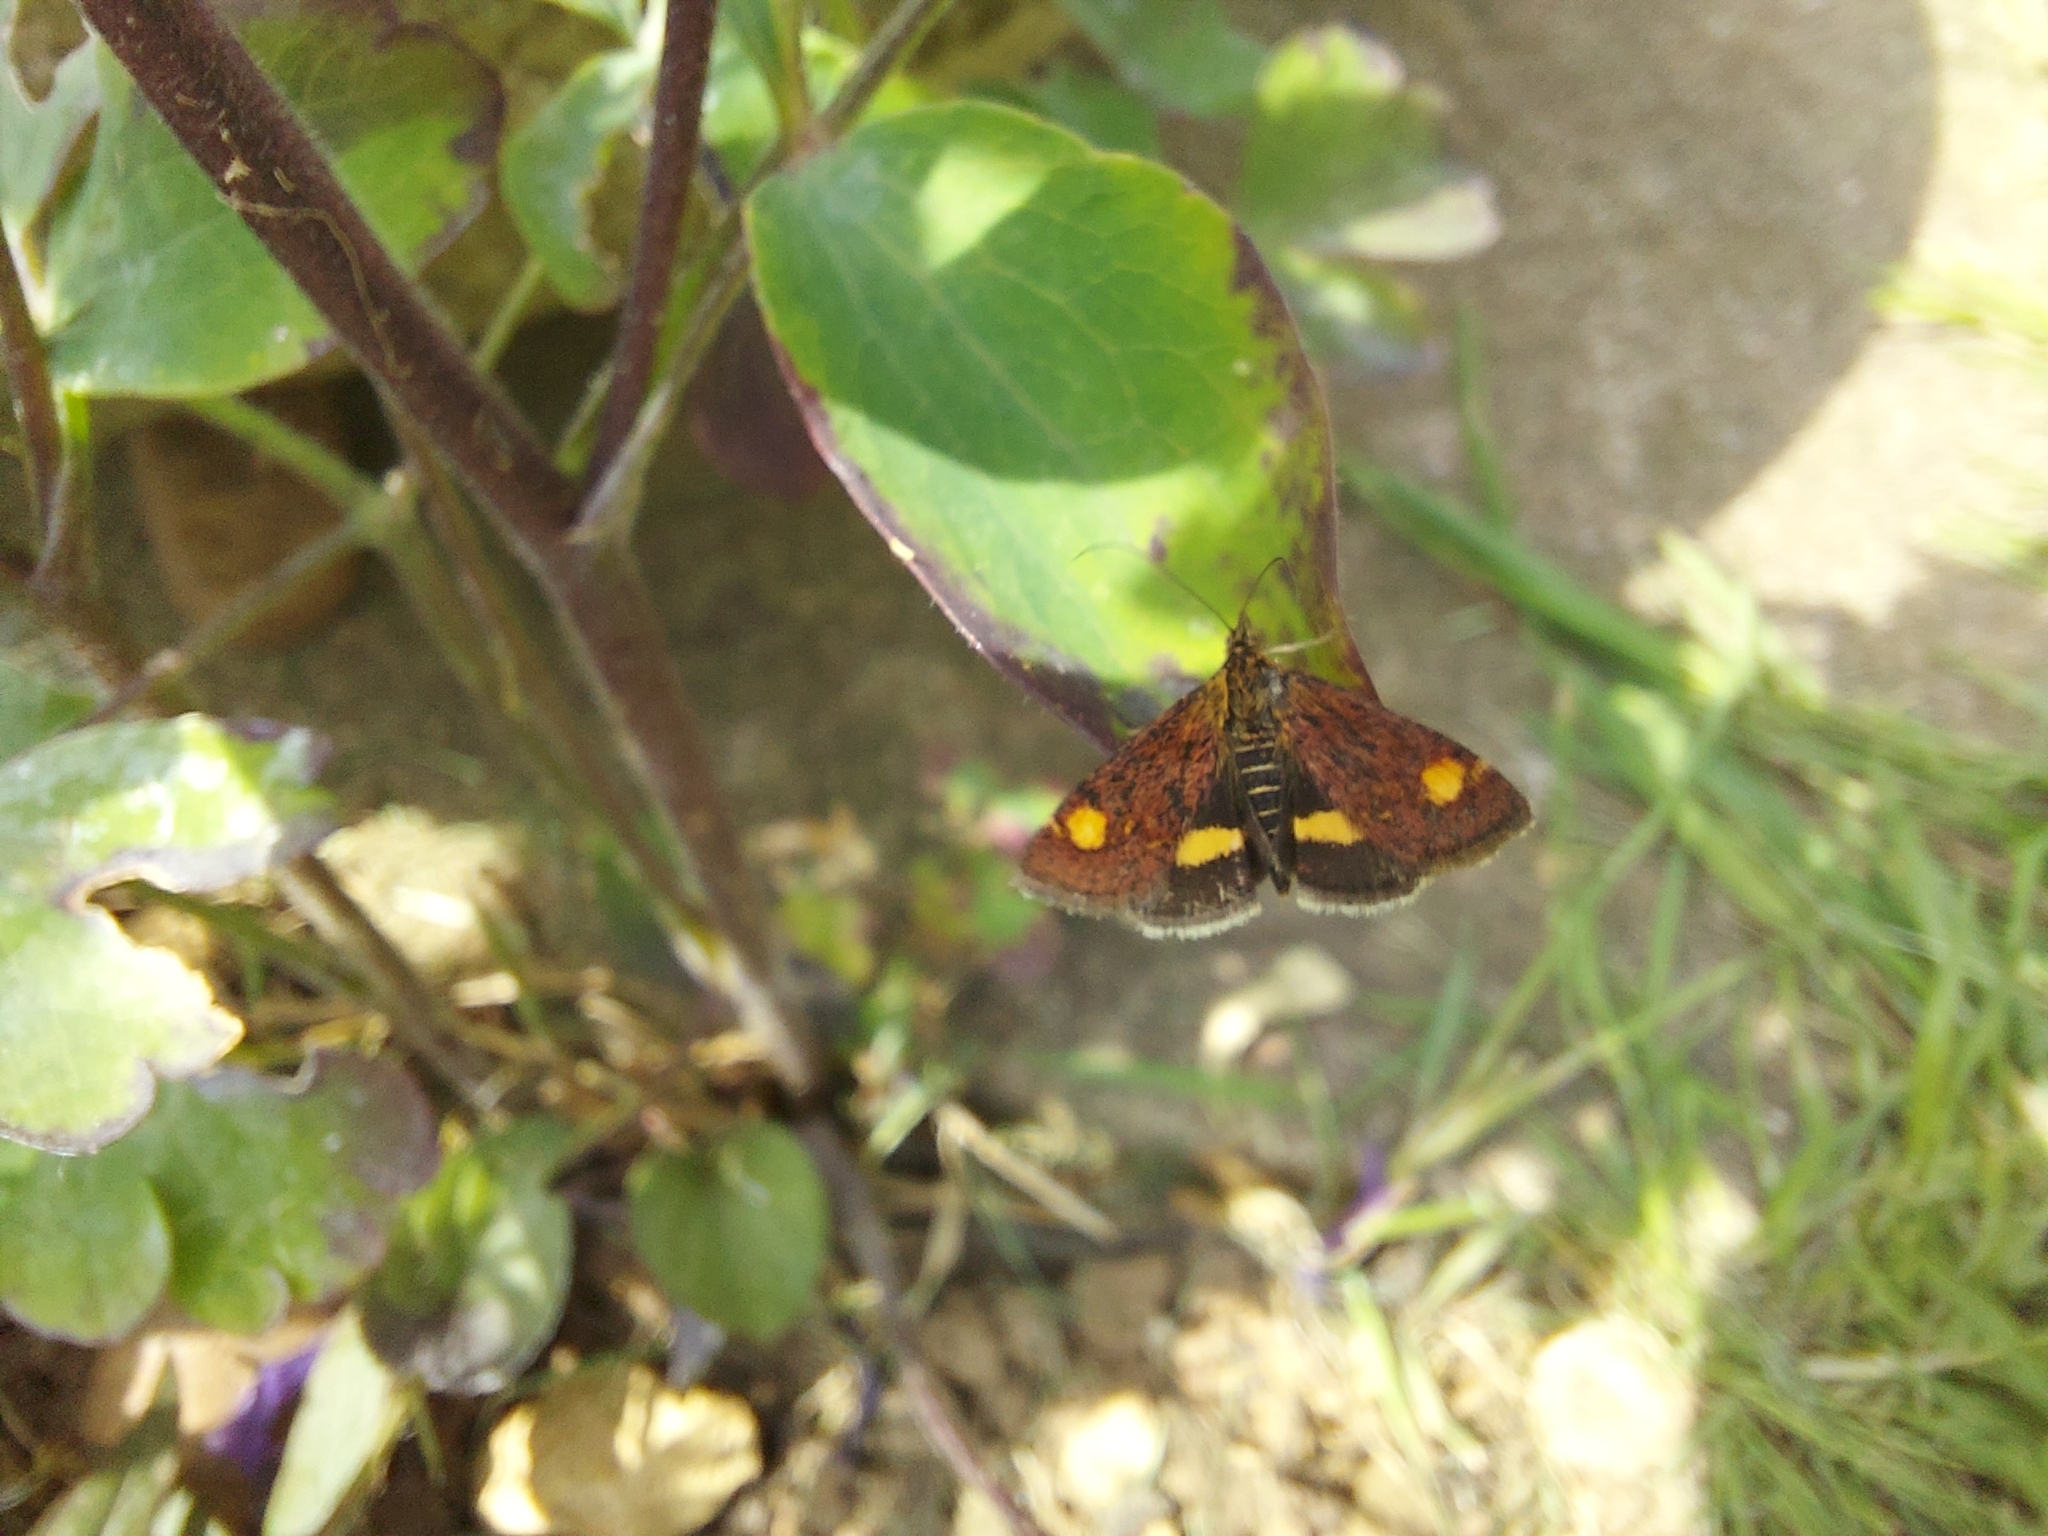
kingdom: Animalia
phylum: Arthropoda
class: Insecta
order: Lepidoptera
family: Crambidae
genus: Pyrausta
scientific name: Pyrausta aurata
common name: Small purple & gold
